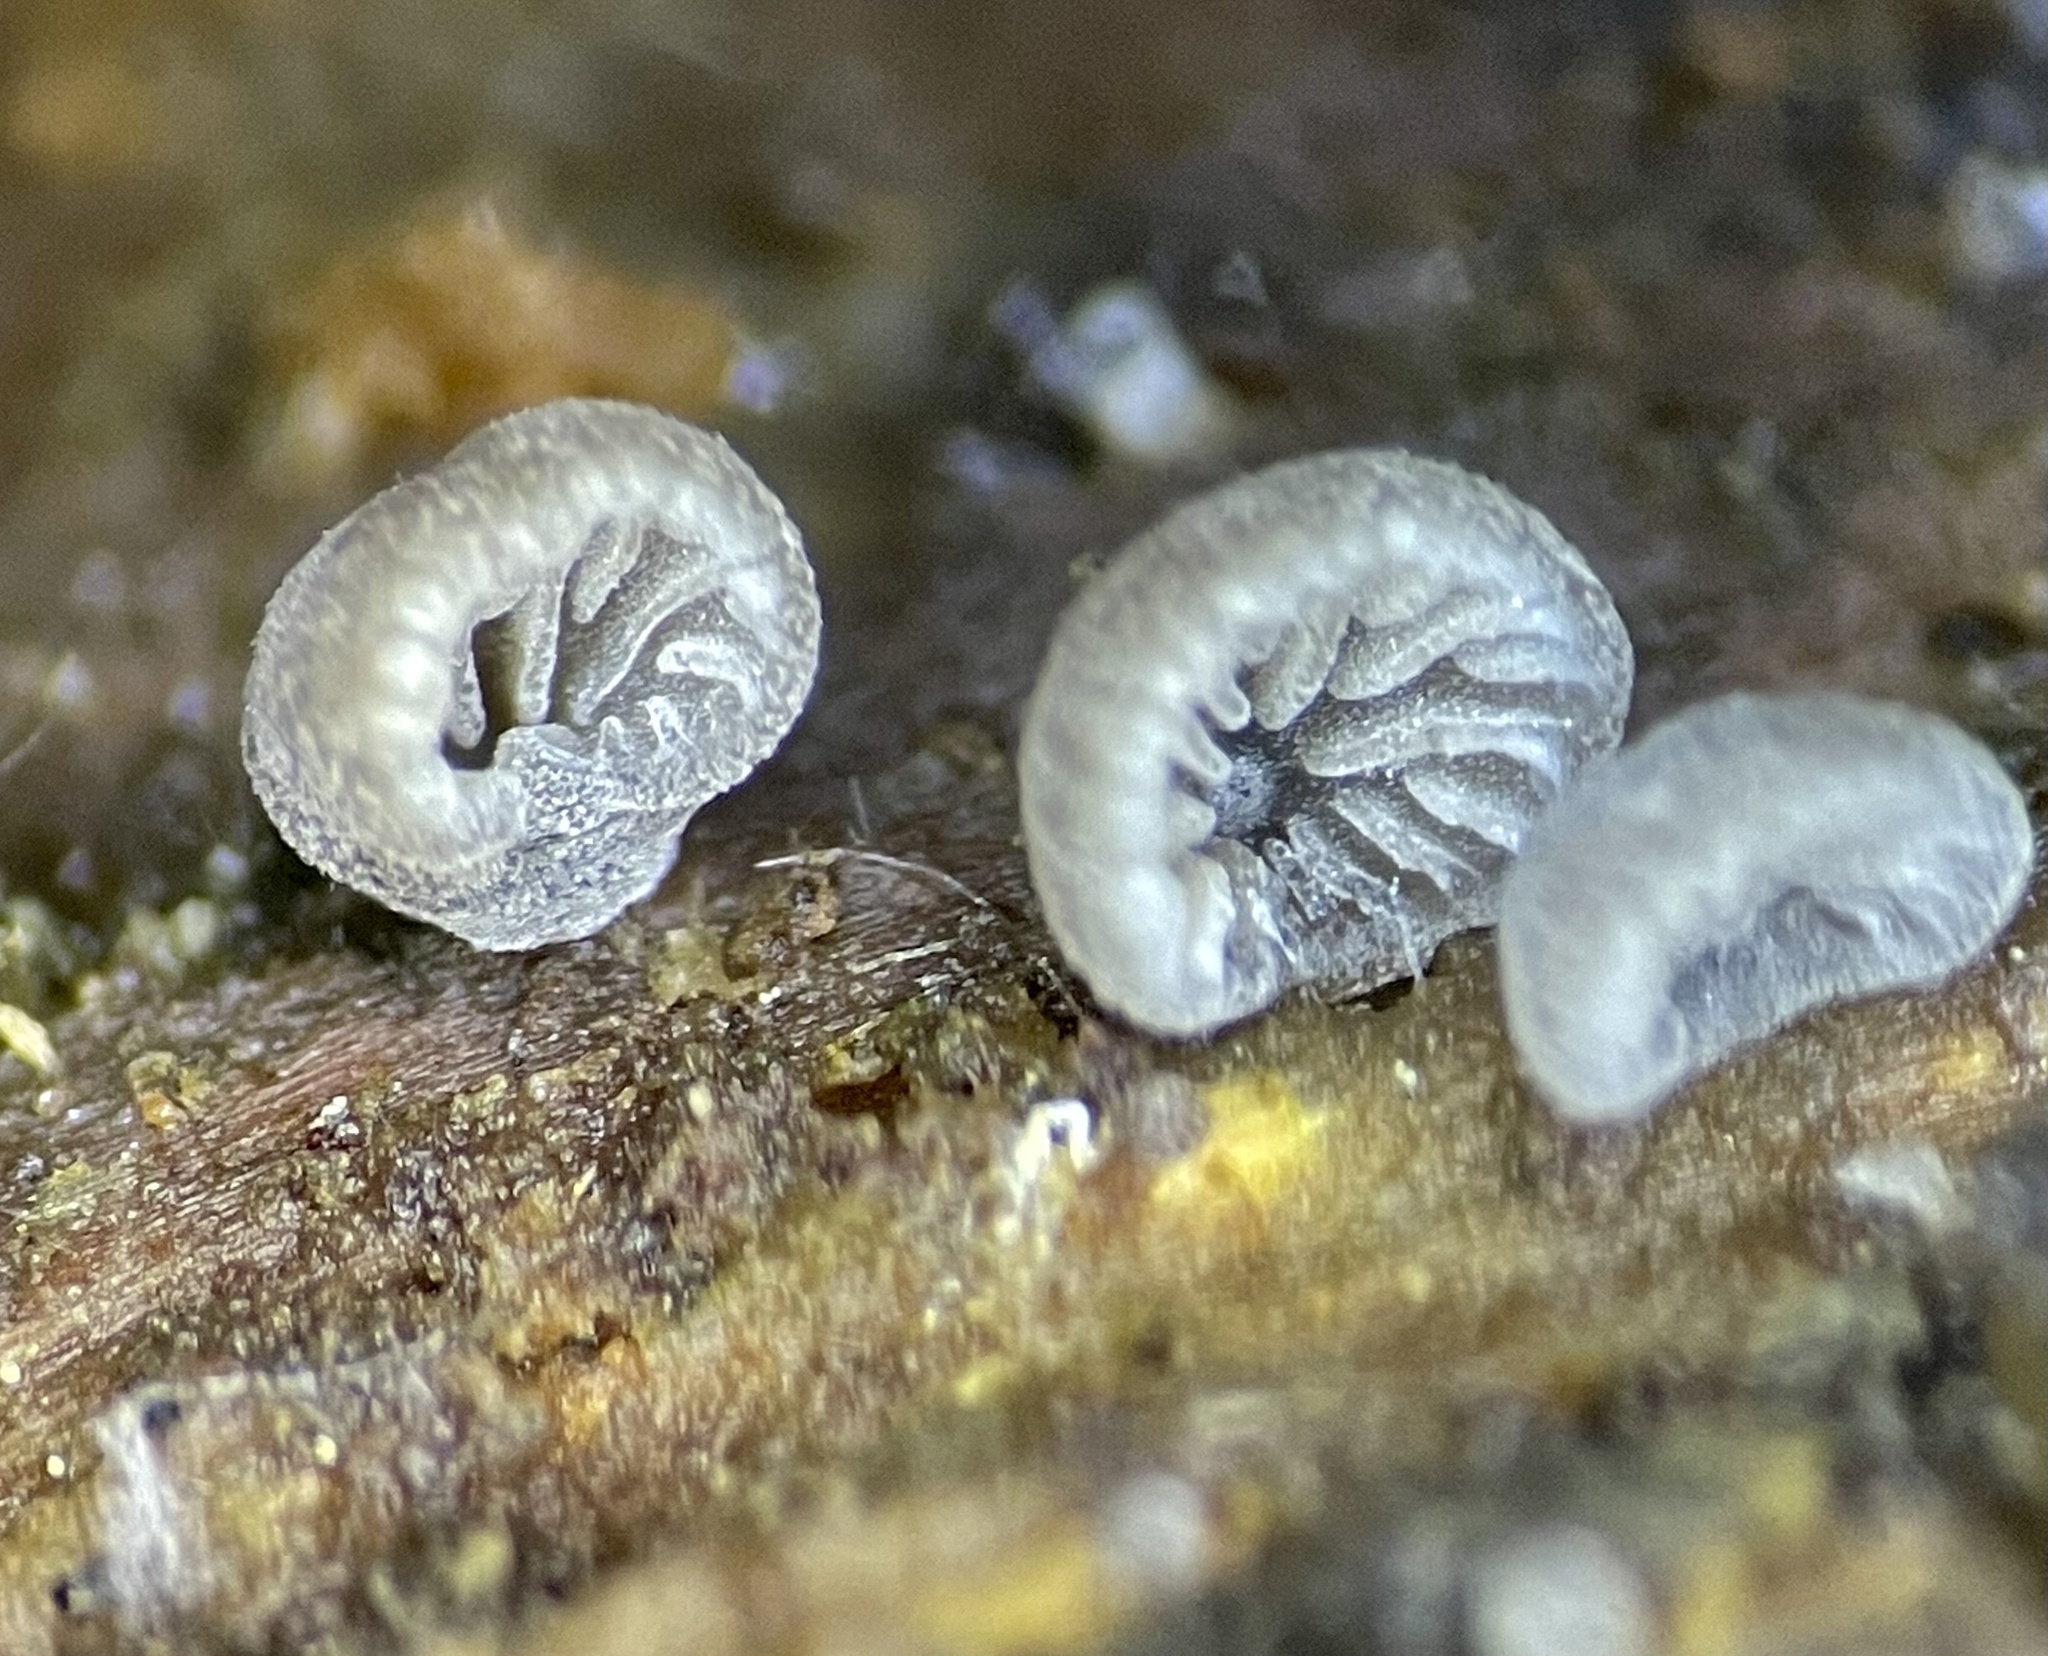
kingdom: Fungi
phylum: Basidiomycota
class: Agaricomycetes
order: Agaricales
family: Pleurotaceae
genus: Resupinatus
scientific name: Resupinatus applicatus
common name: Smoked oysterling
